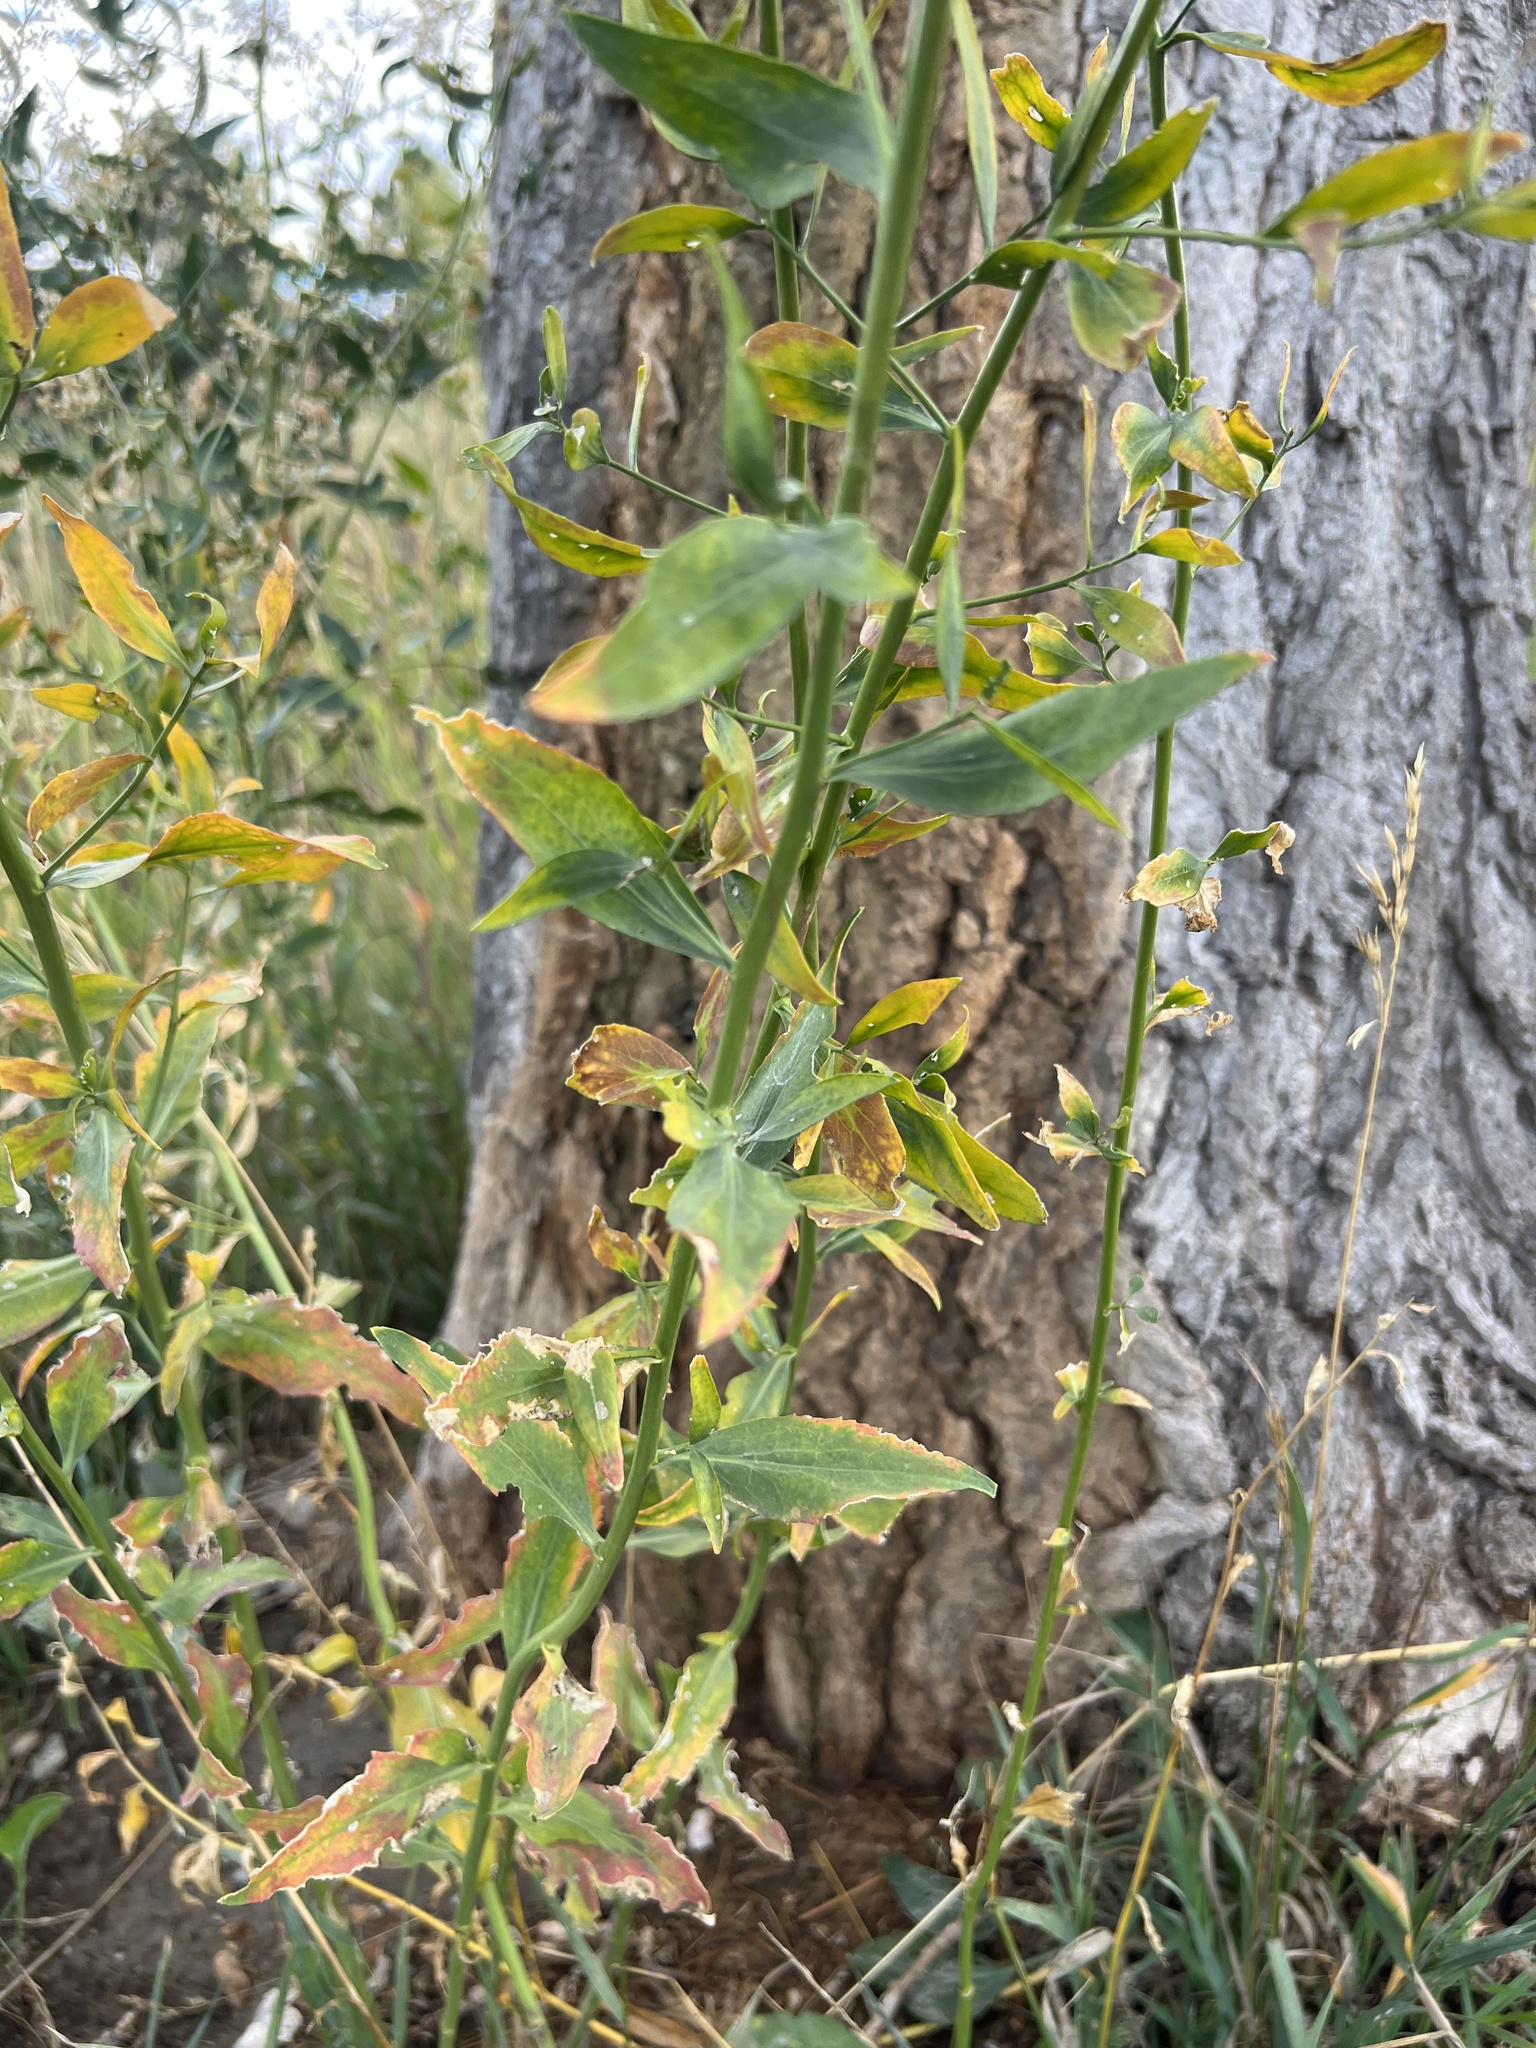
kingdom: Plantae
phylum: Tracheophyta
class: Magnoliopsida
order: Brassicales
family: Brassicaceae
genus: Lepidium
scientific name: Lepidium latifolium
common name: Dittander
